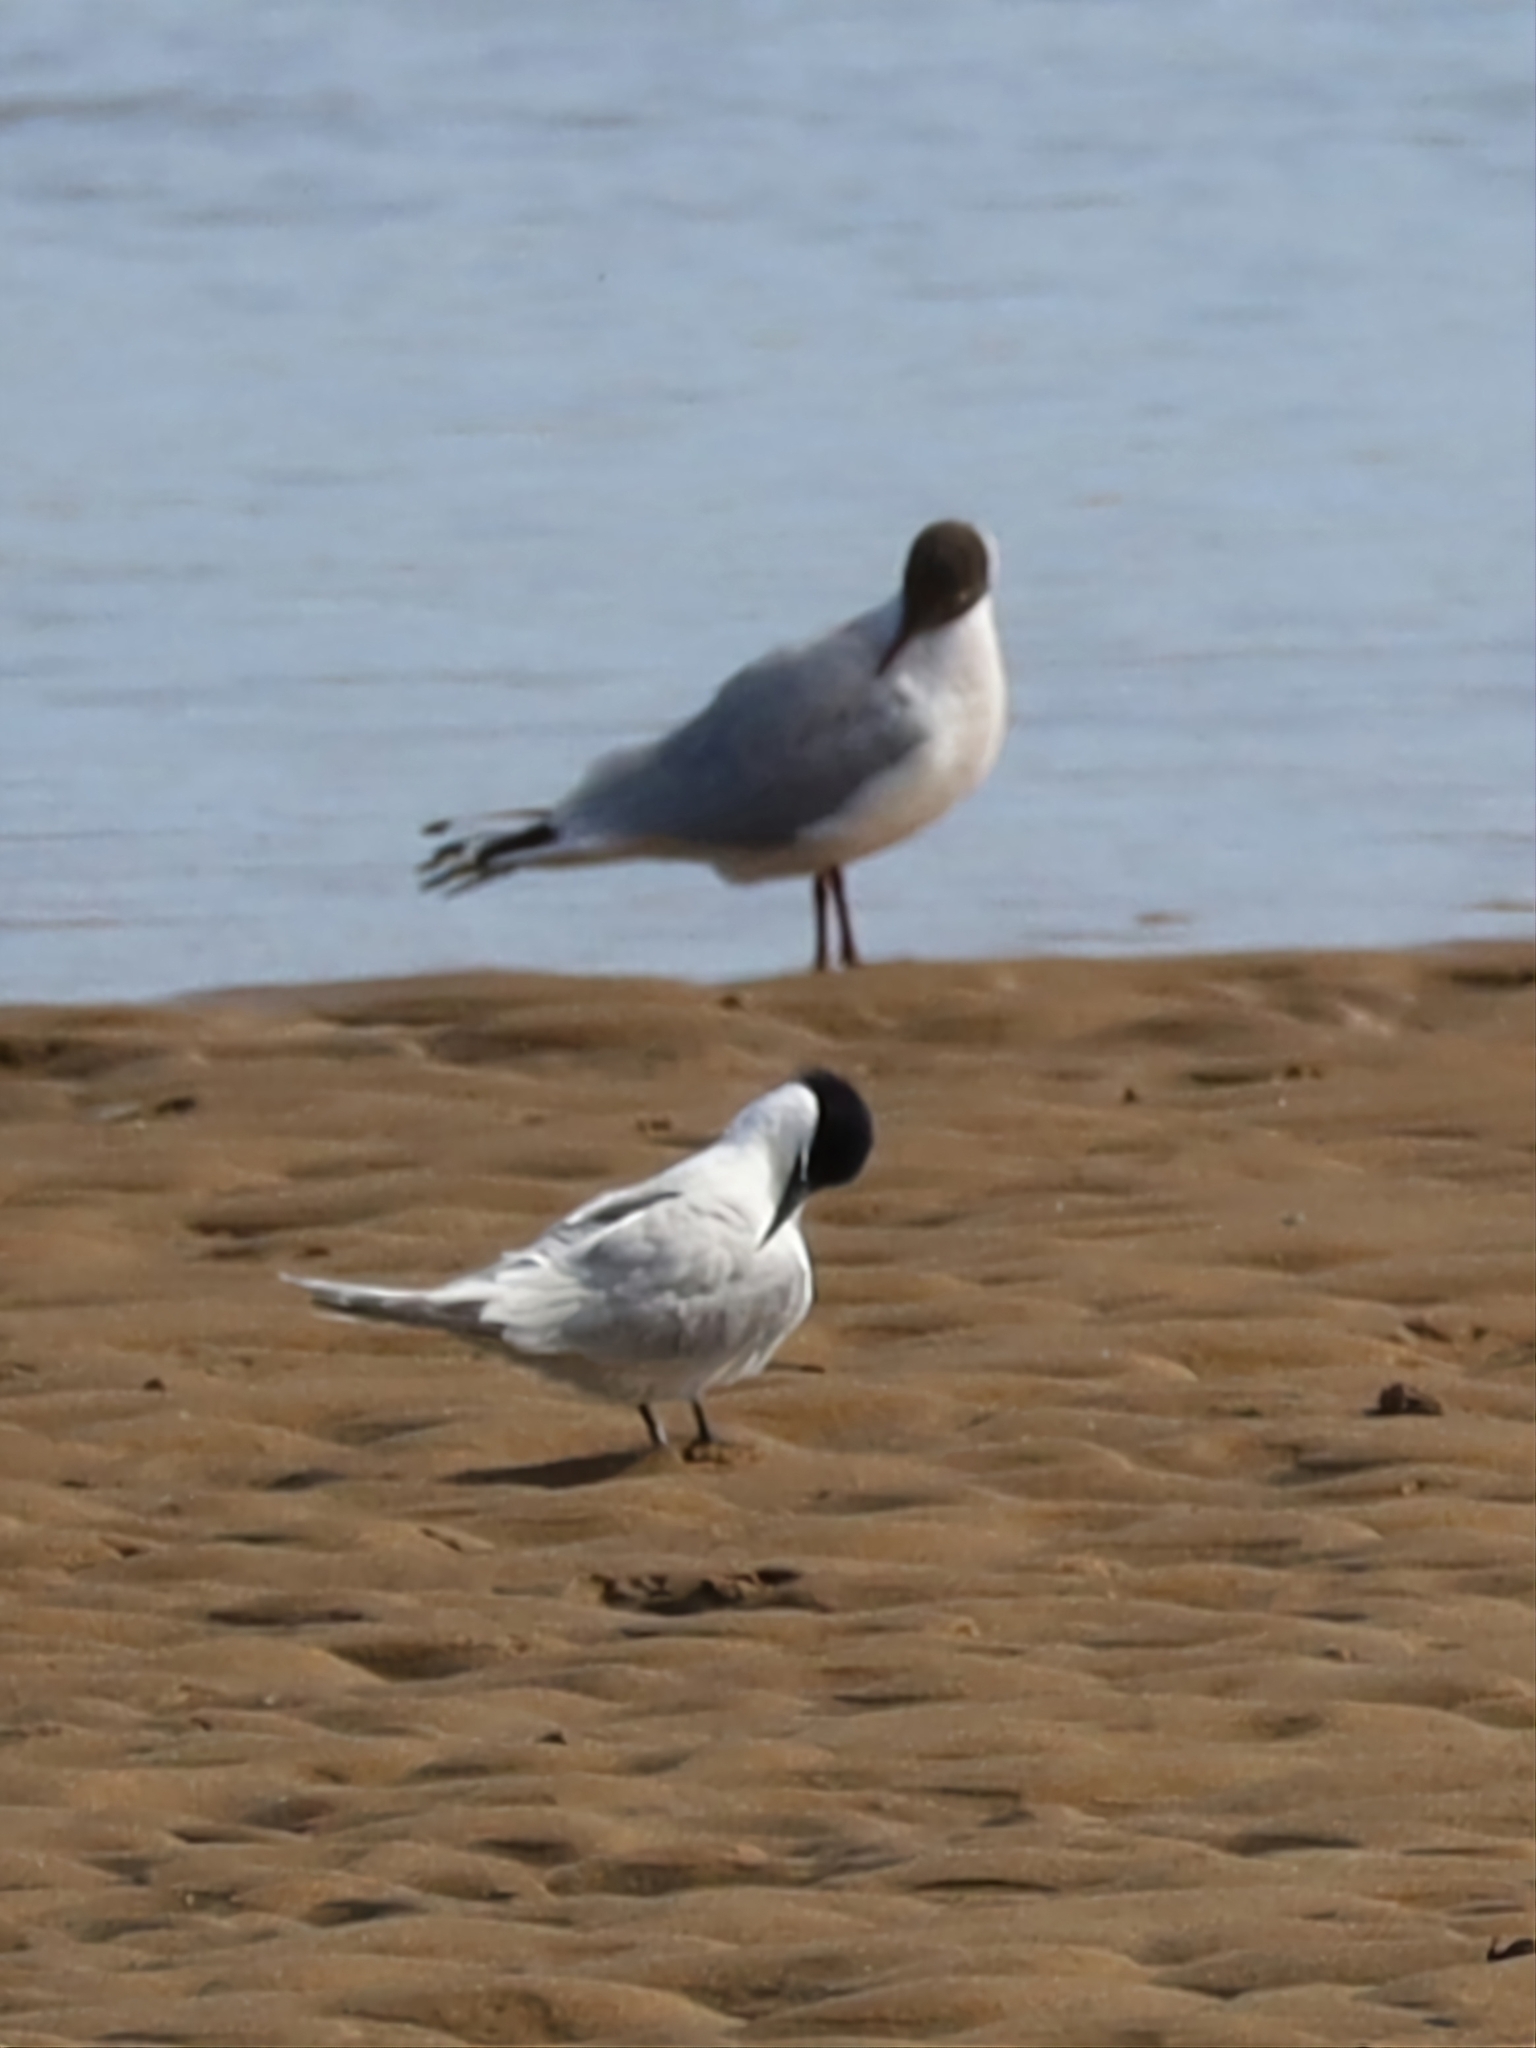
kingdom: Animalia
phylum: Chordata
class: Aves
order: Charadriiformes
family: Laridae
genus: Thalasseus
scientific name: Thalasseus sandvicensis
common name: Sandwich tern
